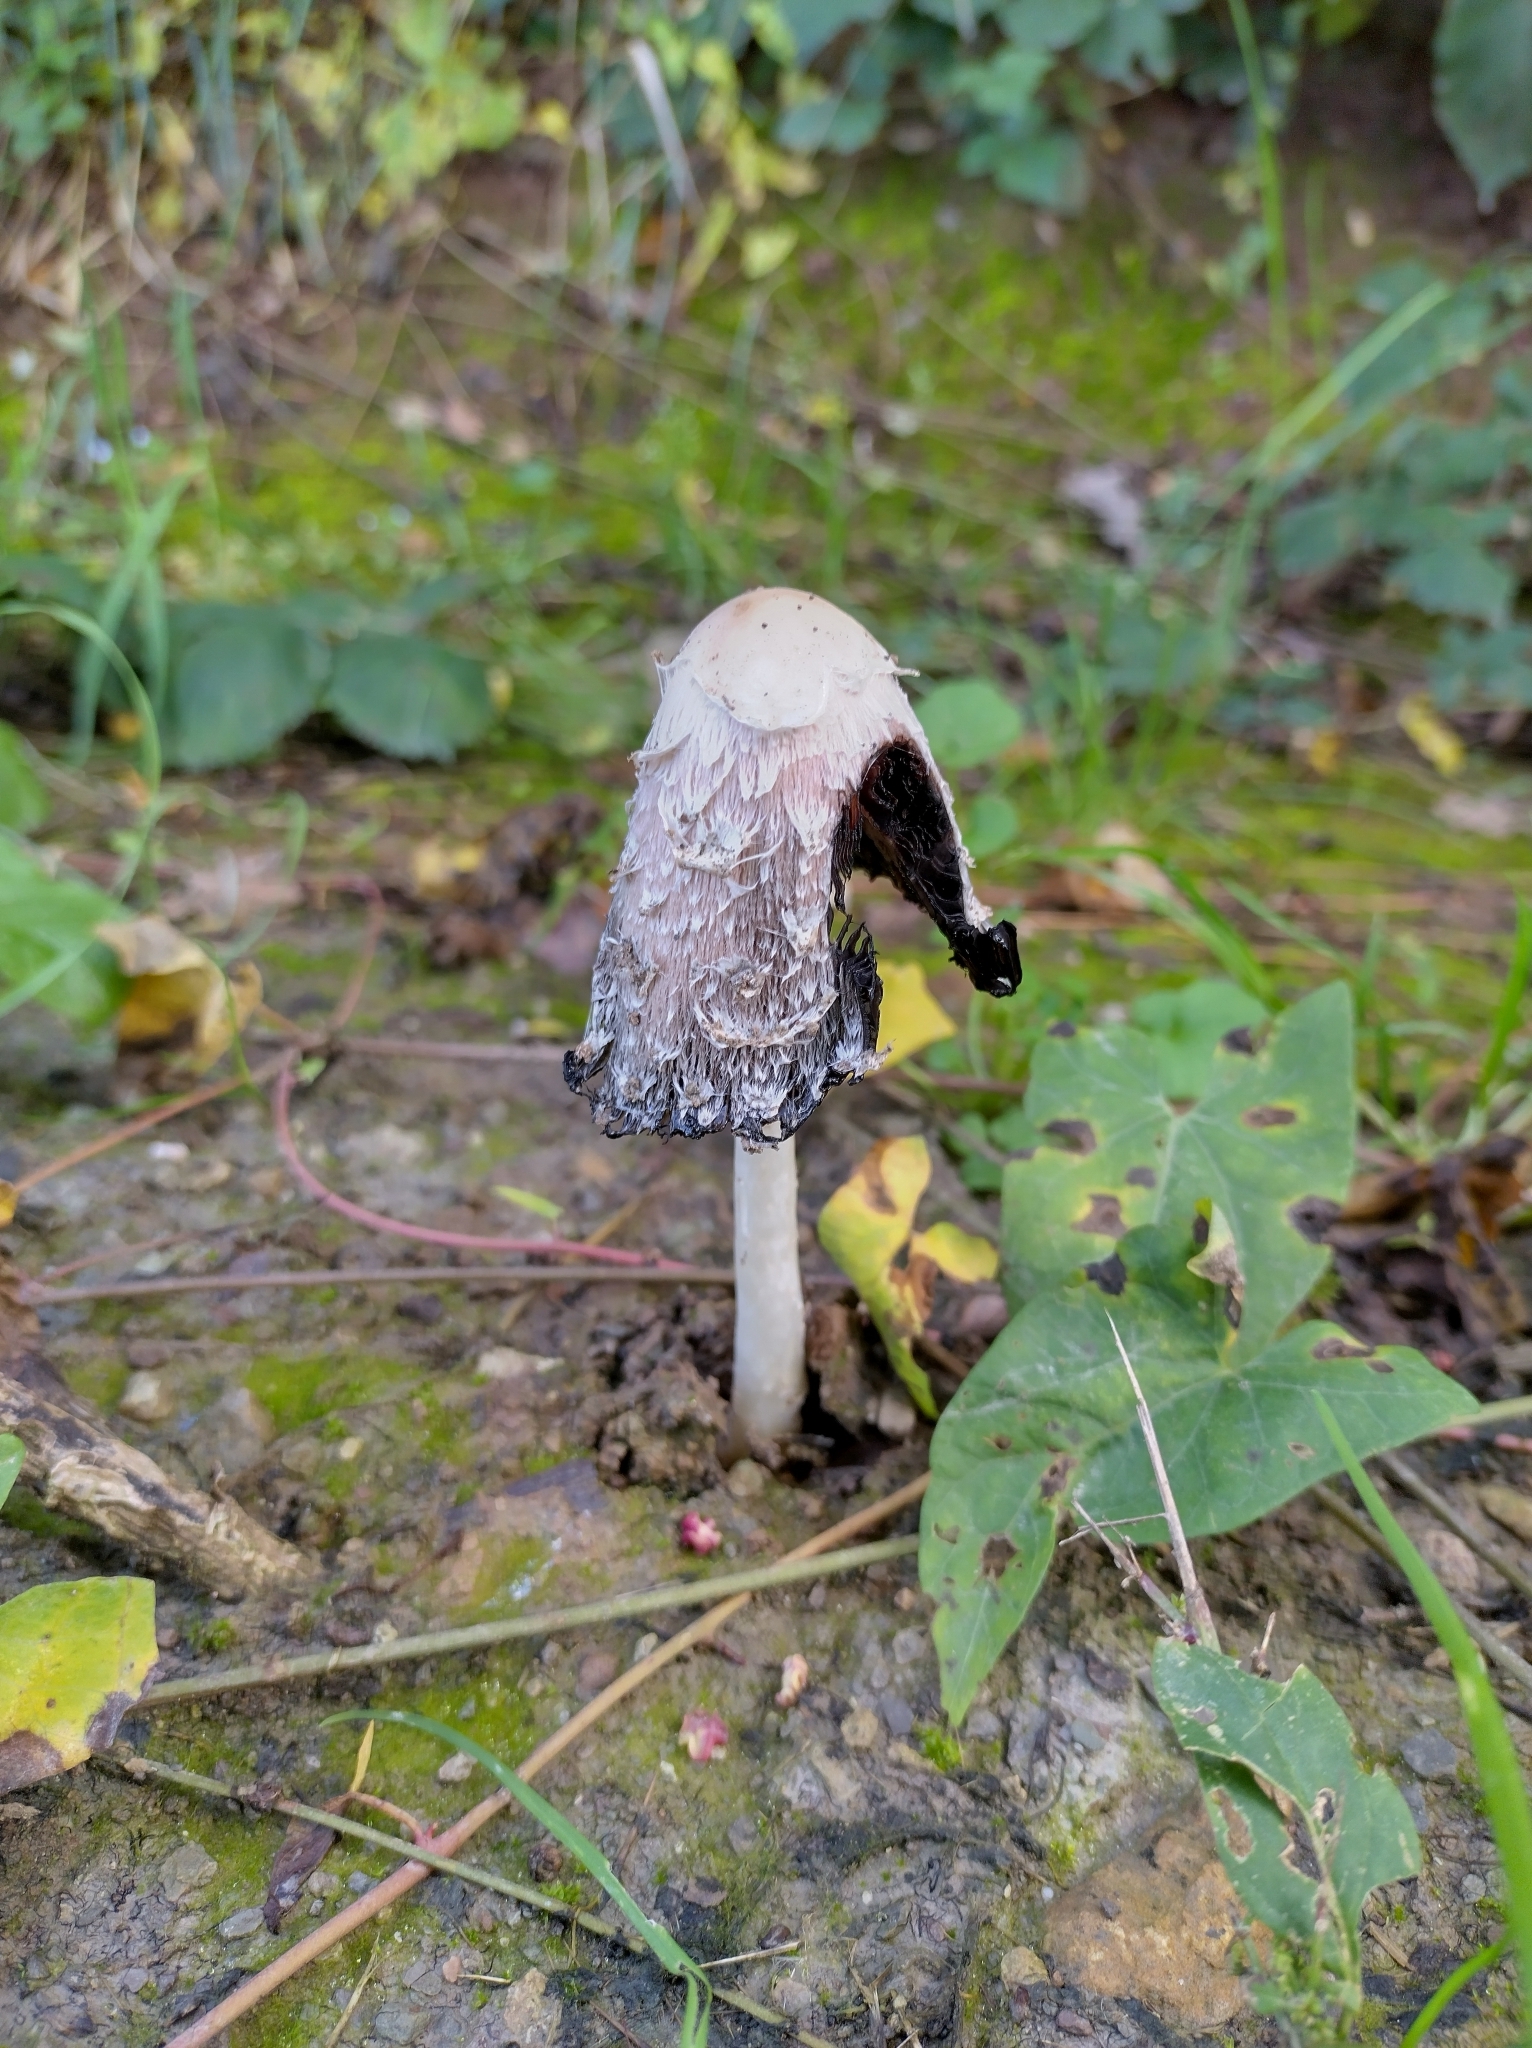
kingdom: Fungi
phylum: Basidiomycota
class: Agaricomycetes
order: Agaricales
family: Agaricaceae
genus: Coprinus
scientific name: Coprinus comatus
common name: Lawyer's wig
